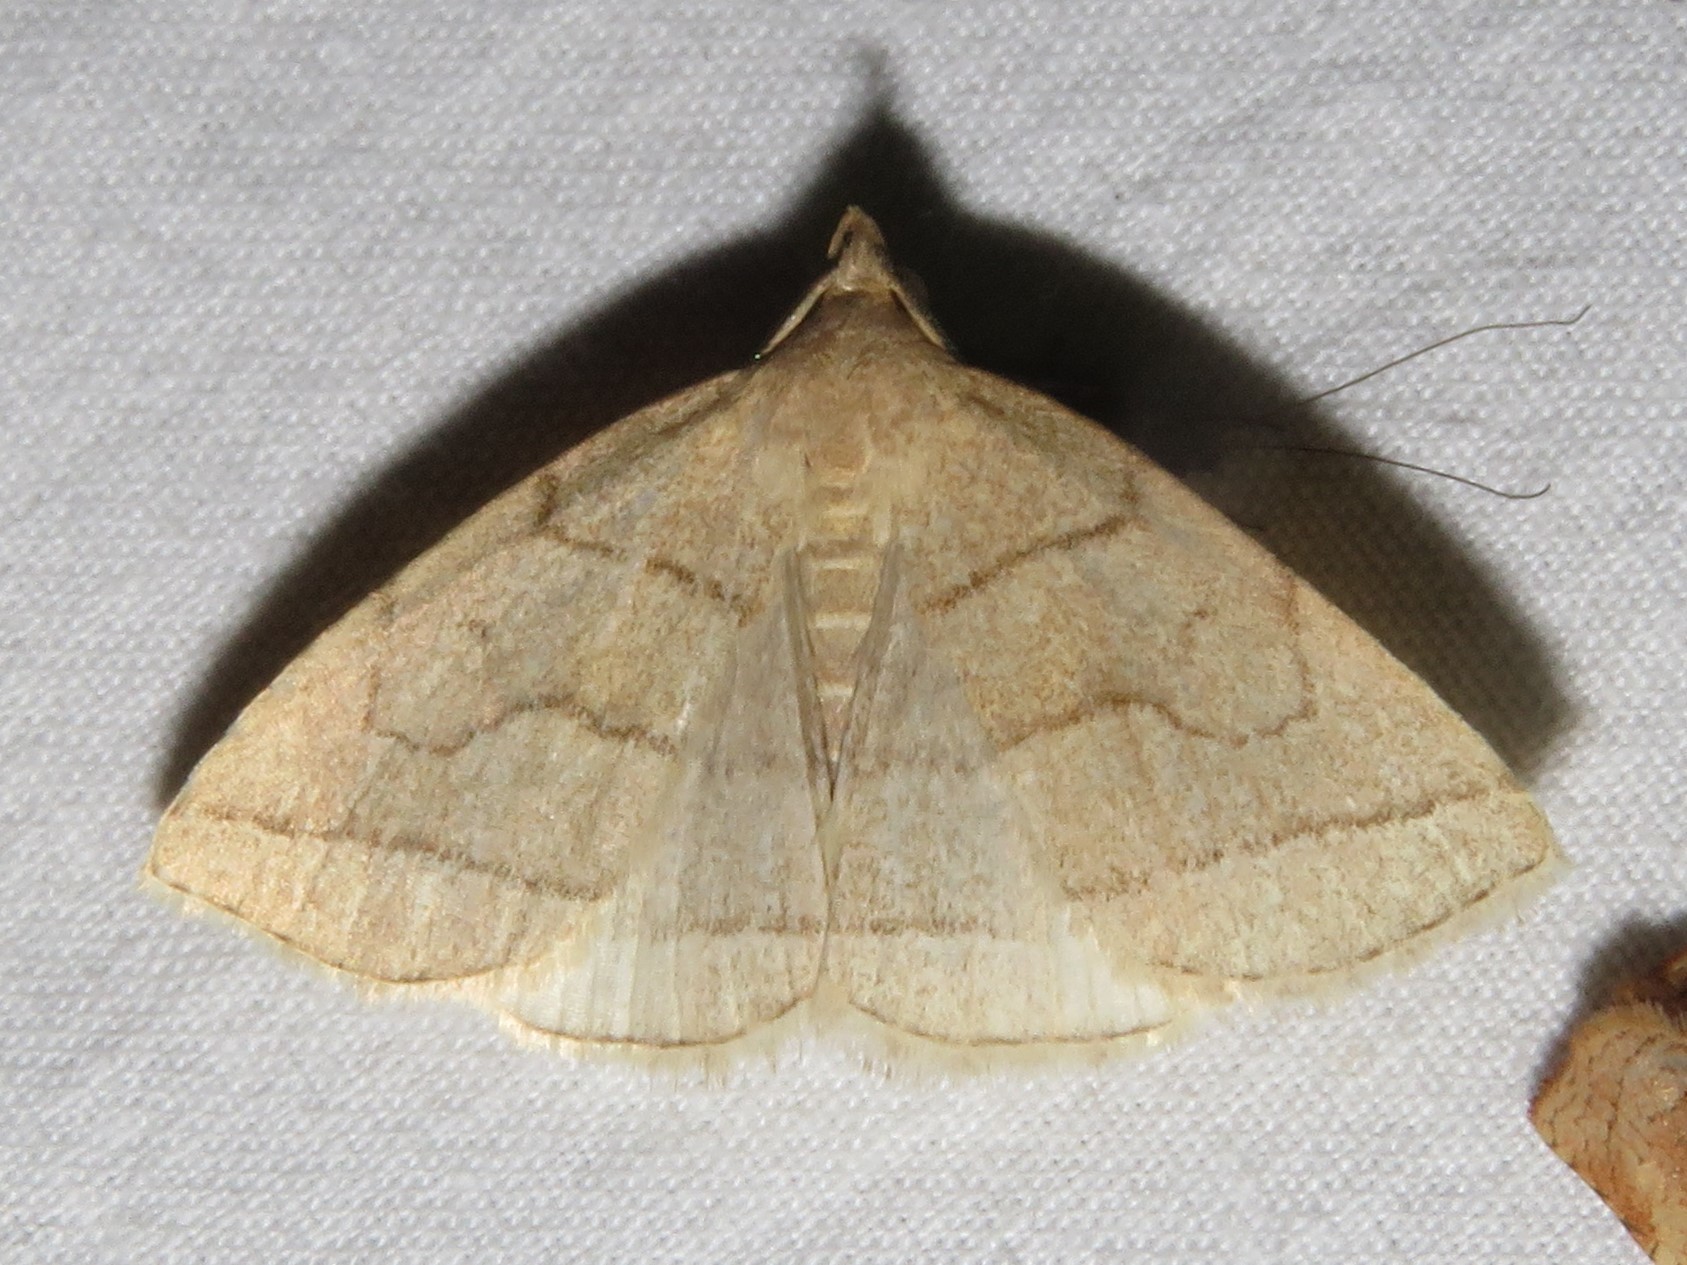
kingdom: Animalia
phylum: Arthropoda
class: Insecta
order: Lepidoptera
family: Erebidae
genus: Zanclognatha
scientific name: Zanclognatha cruralis
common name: Early fan-foot
